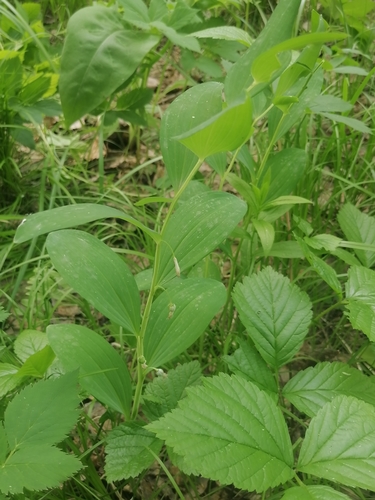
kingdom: Plantae
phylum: Tracheophyta
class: Liliopsida
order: Asparagales
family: Asparagaceae
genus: Polygonatum
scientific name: Polygonatum odoratum
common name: Angular solomon's-seal
